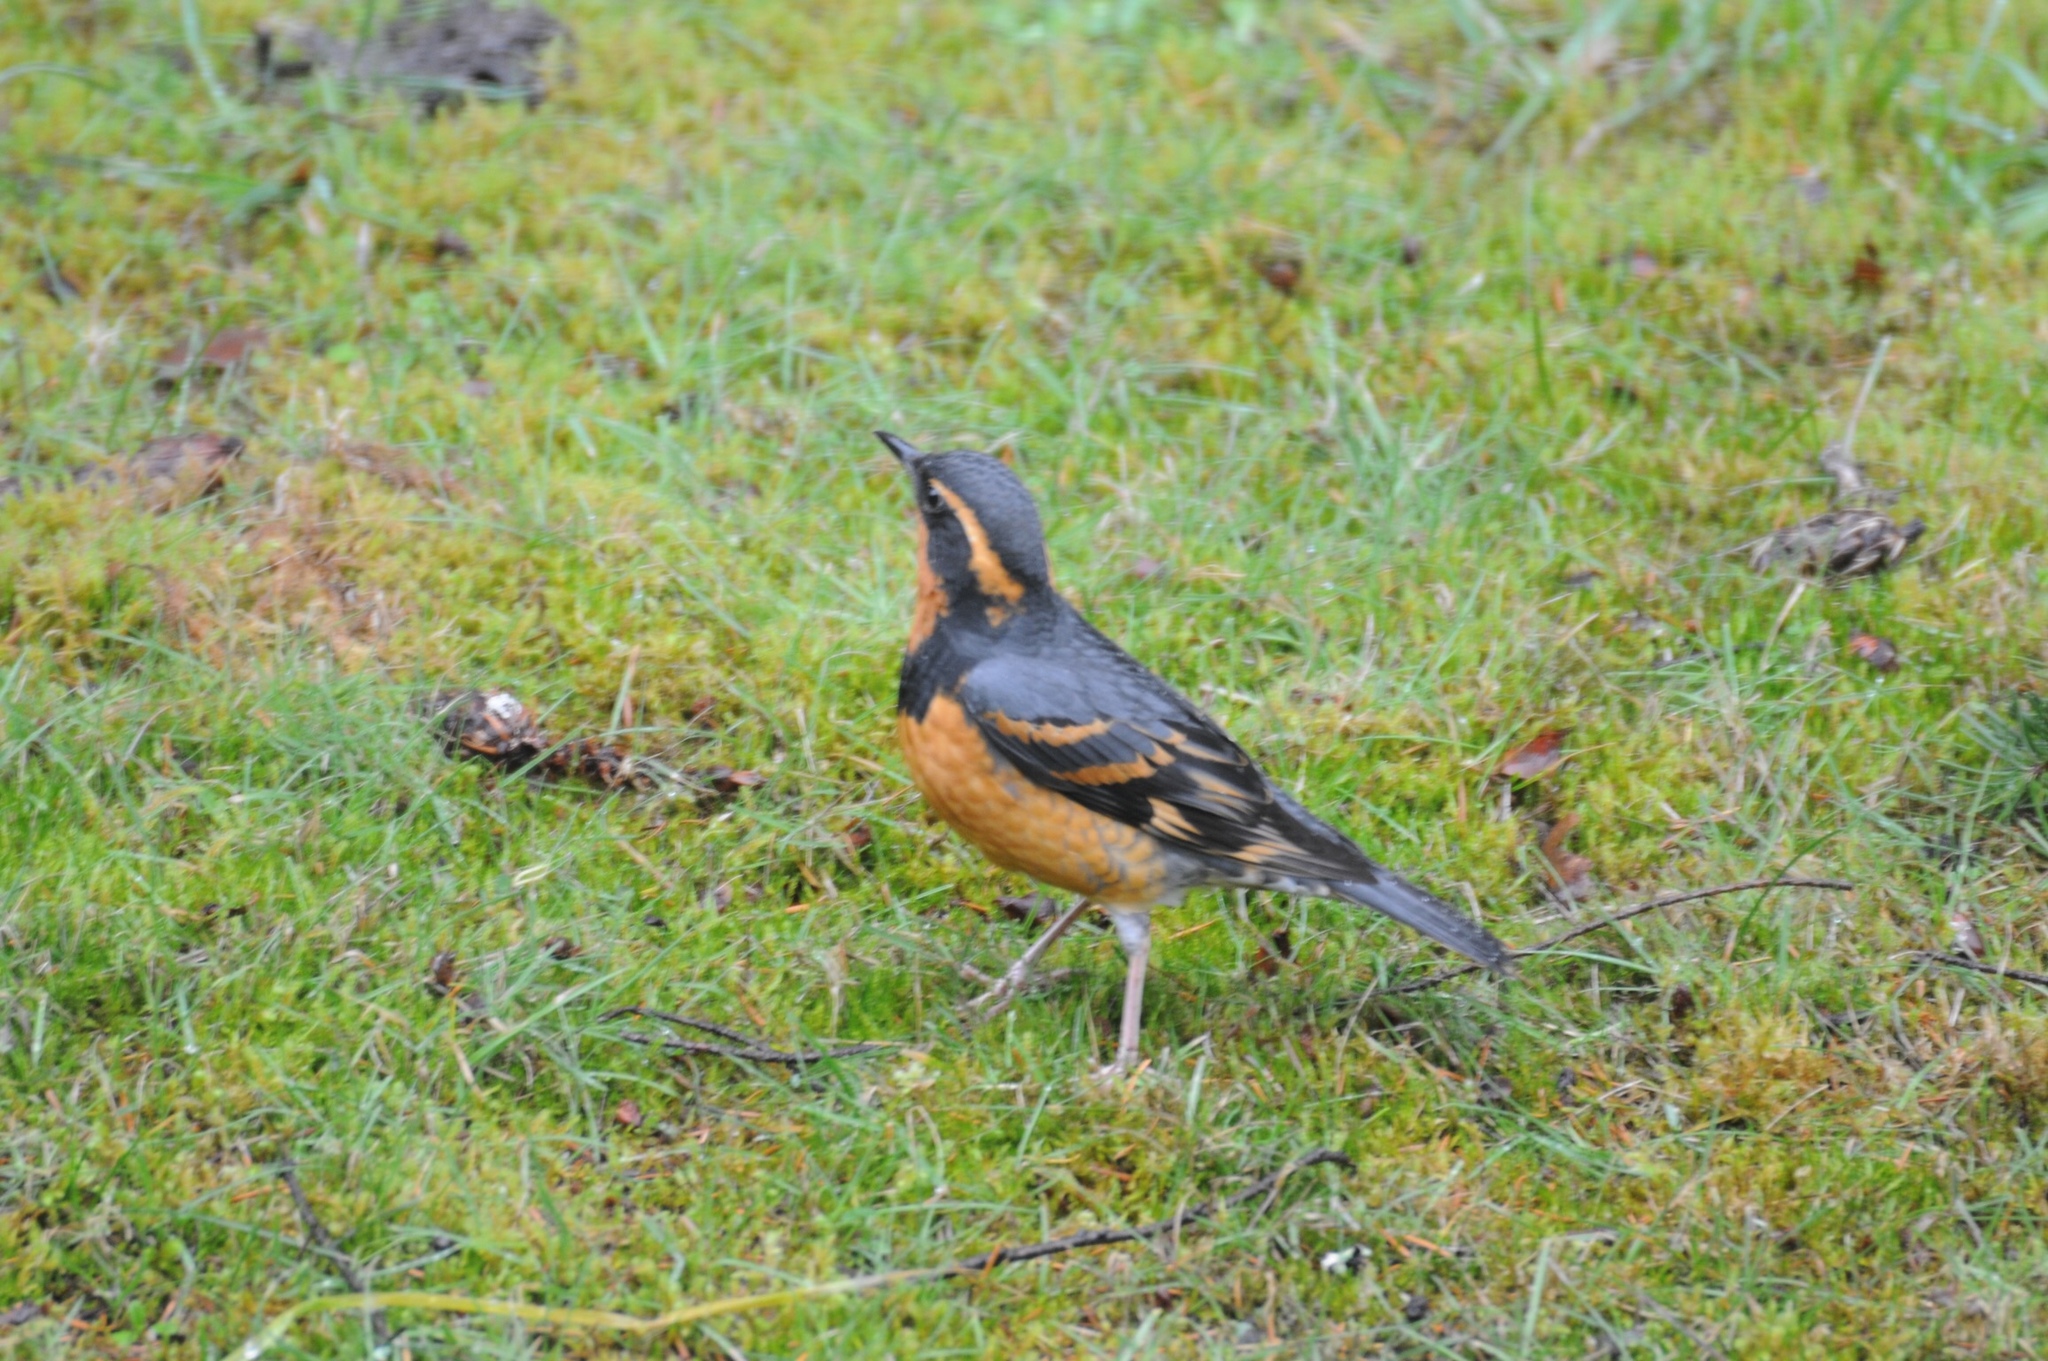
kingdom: Animalia
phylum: Chordata
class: Aves
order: Passeriformes
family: Turdidae
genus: Ixoreus
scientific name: Ixoreus naevius
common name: Varied thrush
